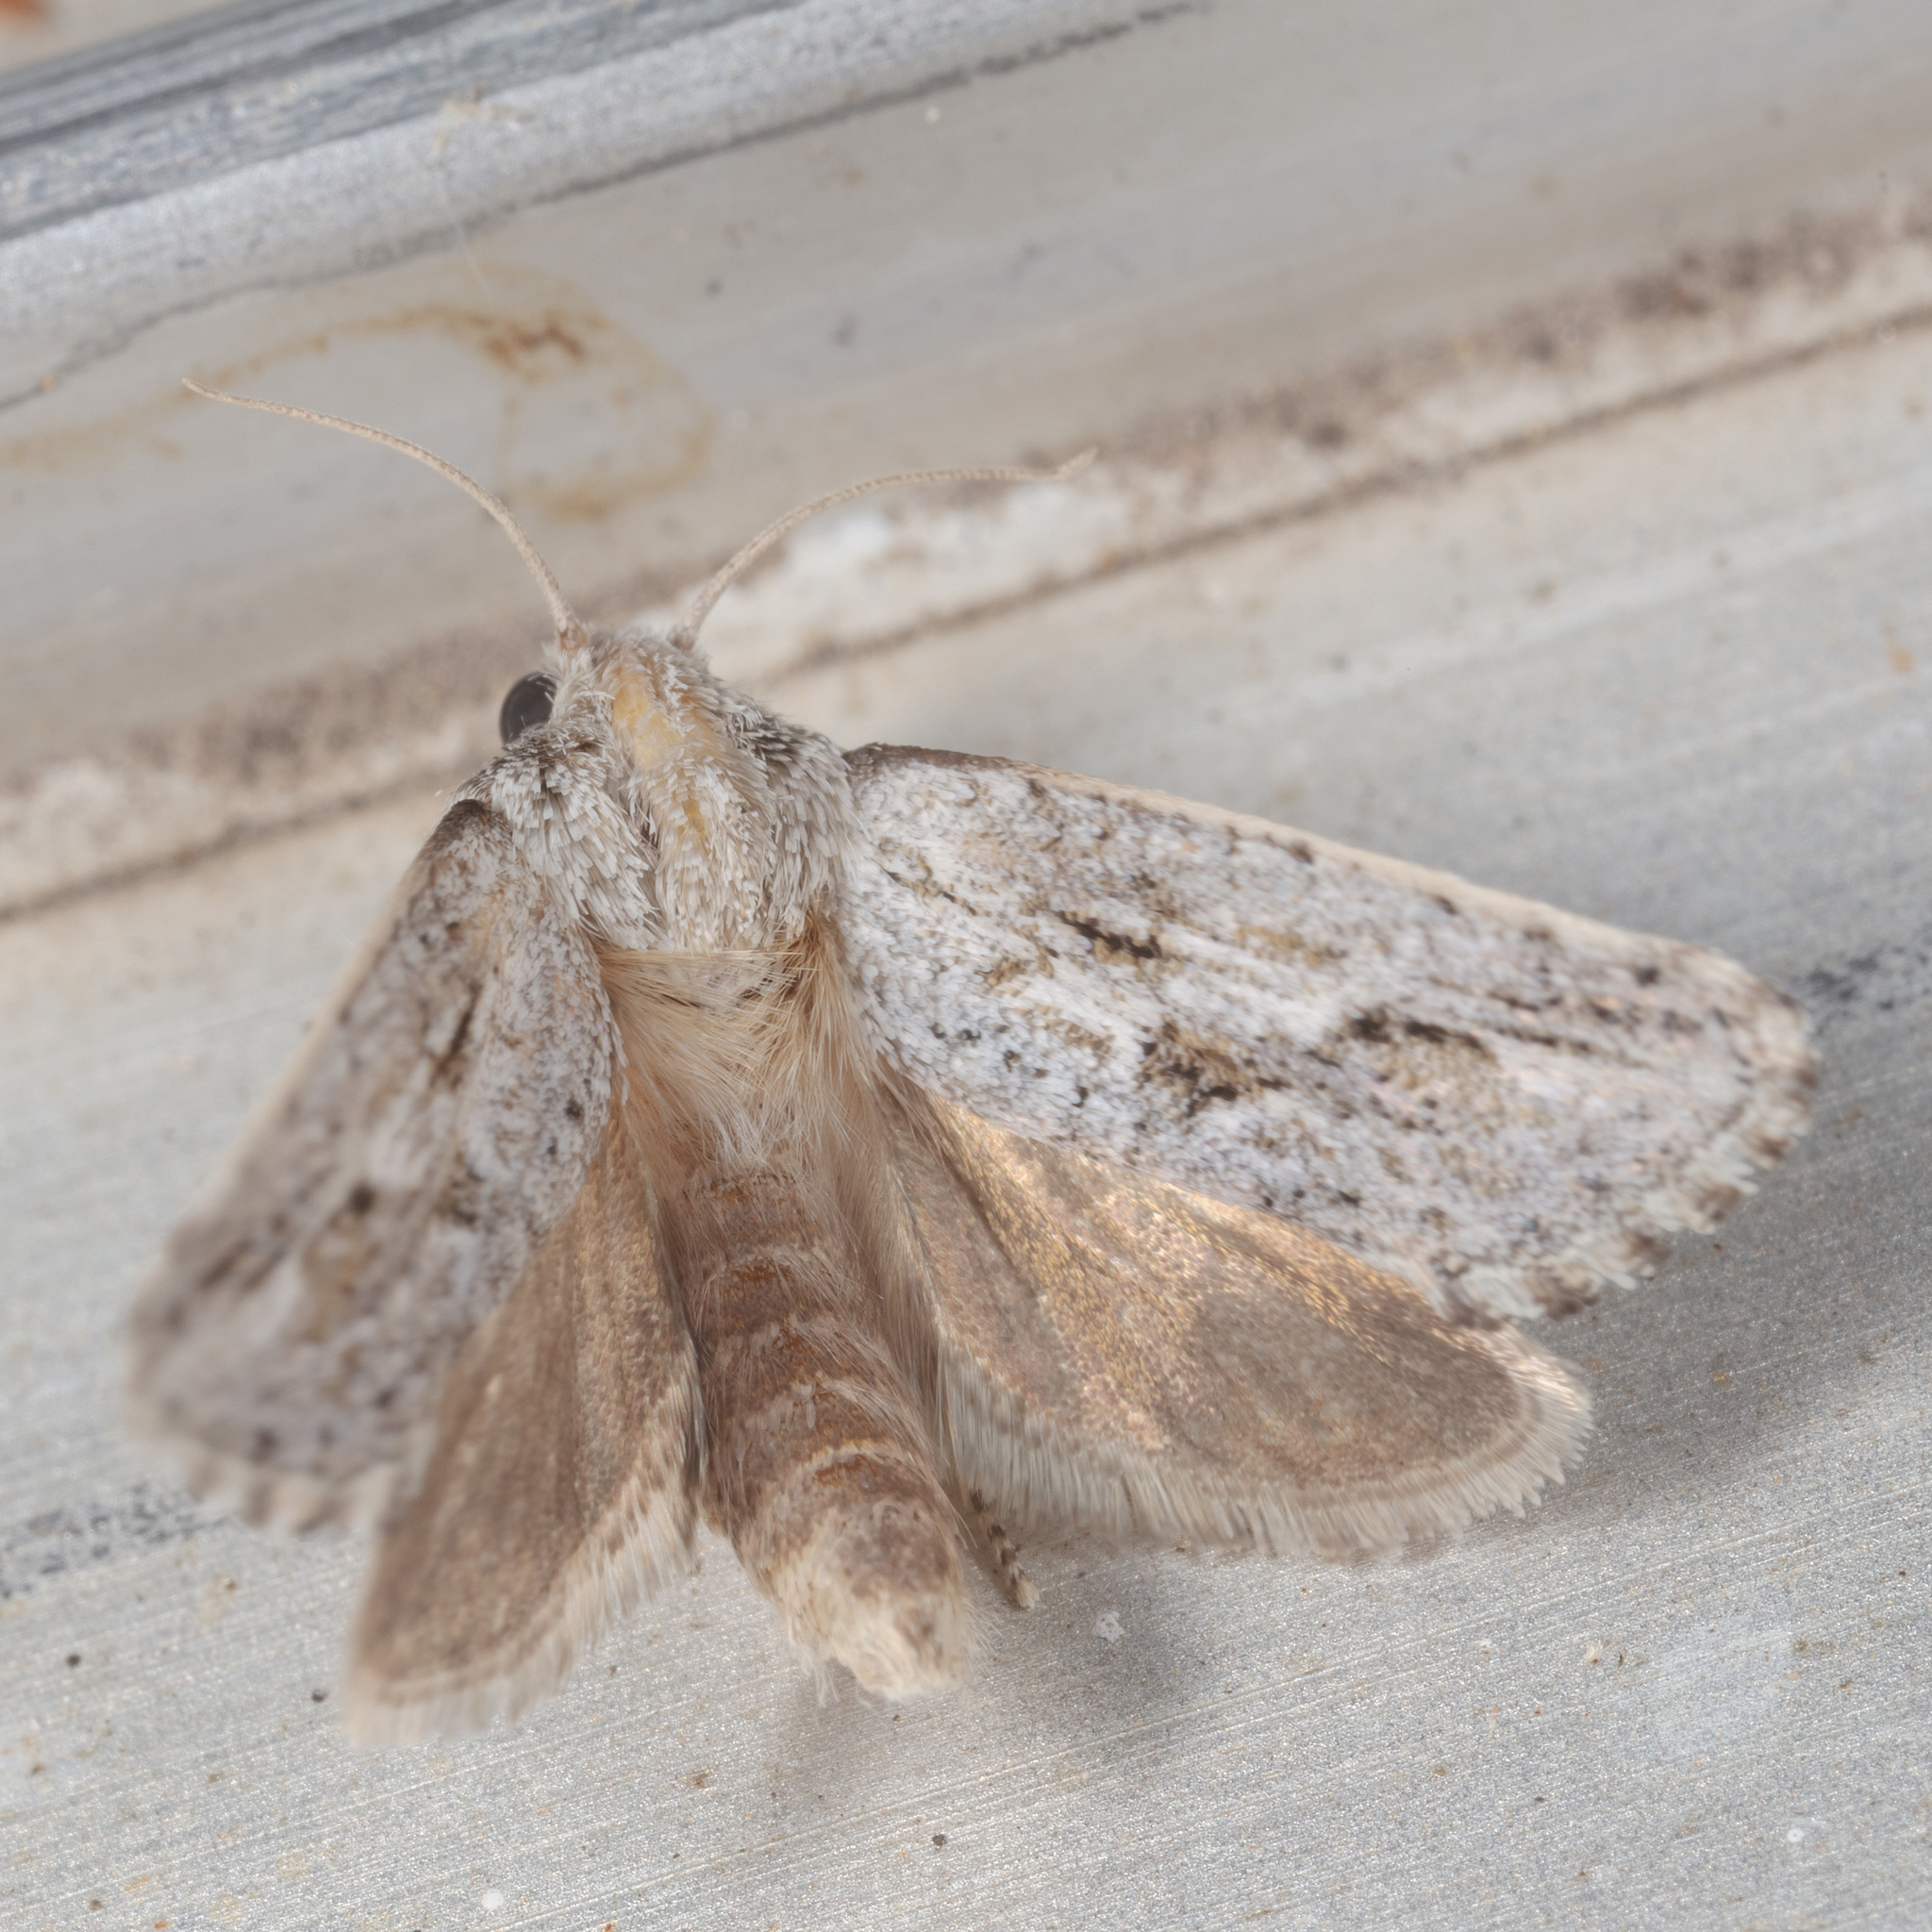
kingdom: Animalia
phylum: Arthropoda
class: Insecta
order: Lepidoptera
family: Tineidae
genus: Acrolophus
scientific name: Acrolophus griseus
